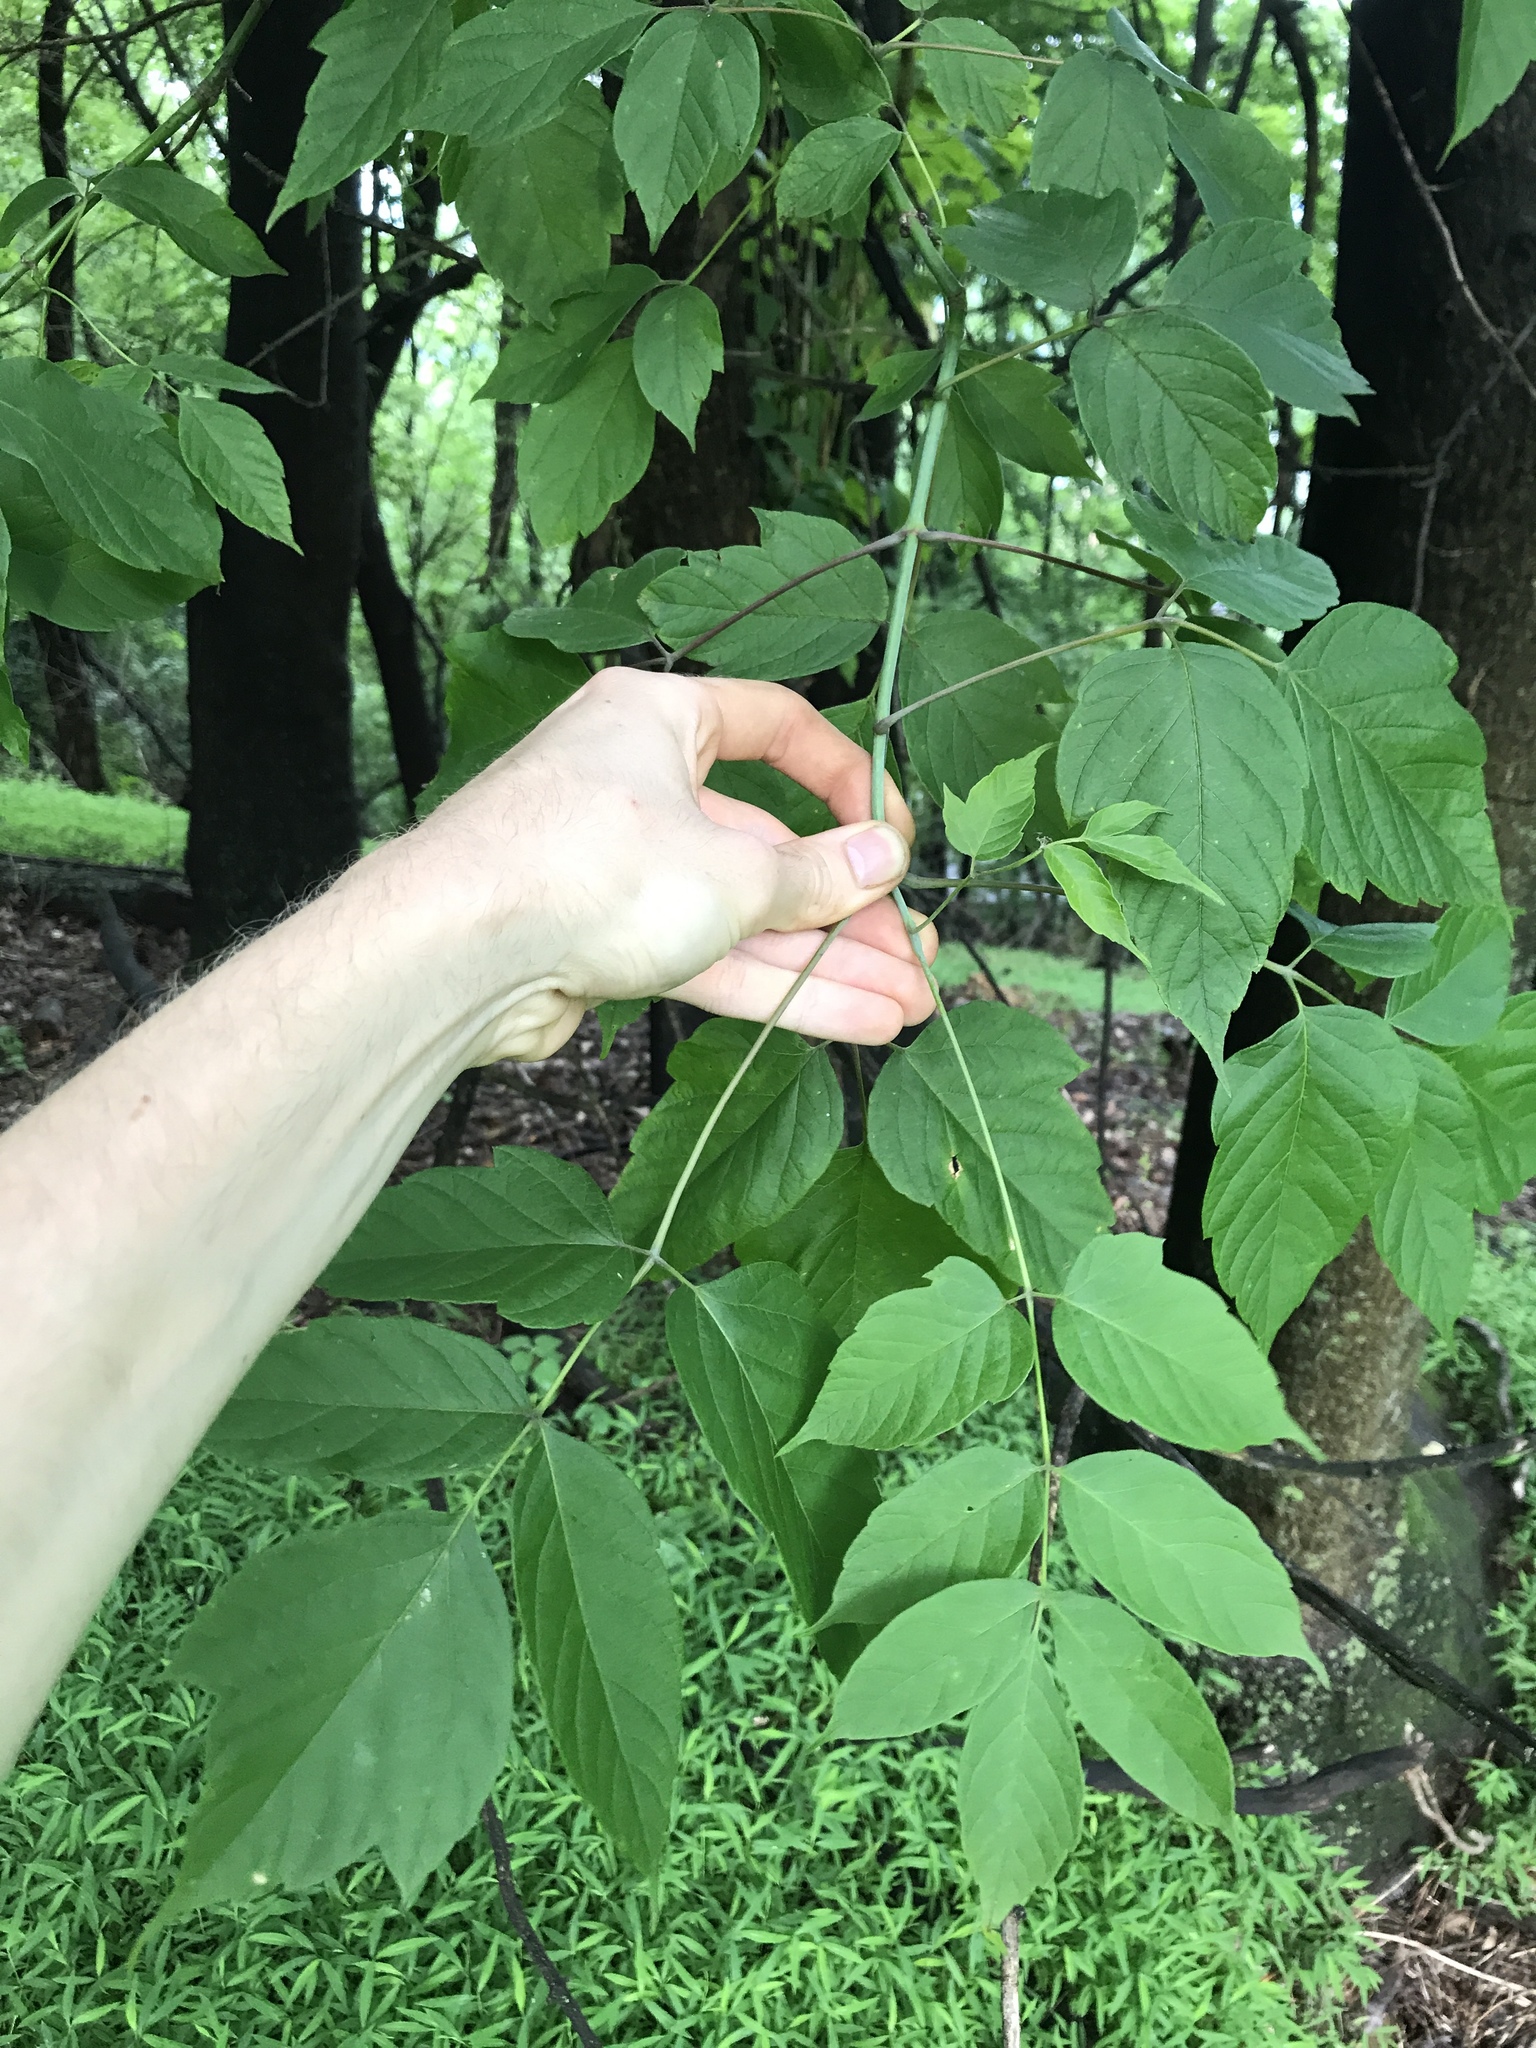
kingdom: Plantae
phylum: Tracheophyta
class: Magnoliopsida
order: Sapindales
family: Sapindaceae
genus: Acer
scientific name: Acer negundo
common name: Ashleaf maple
